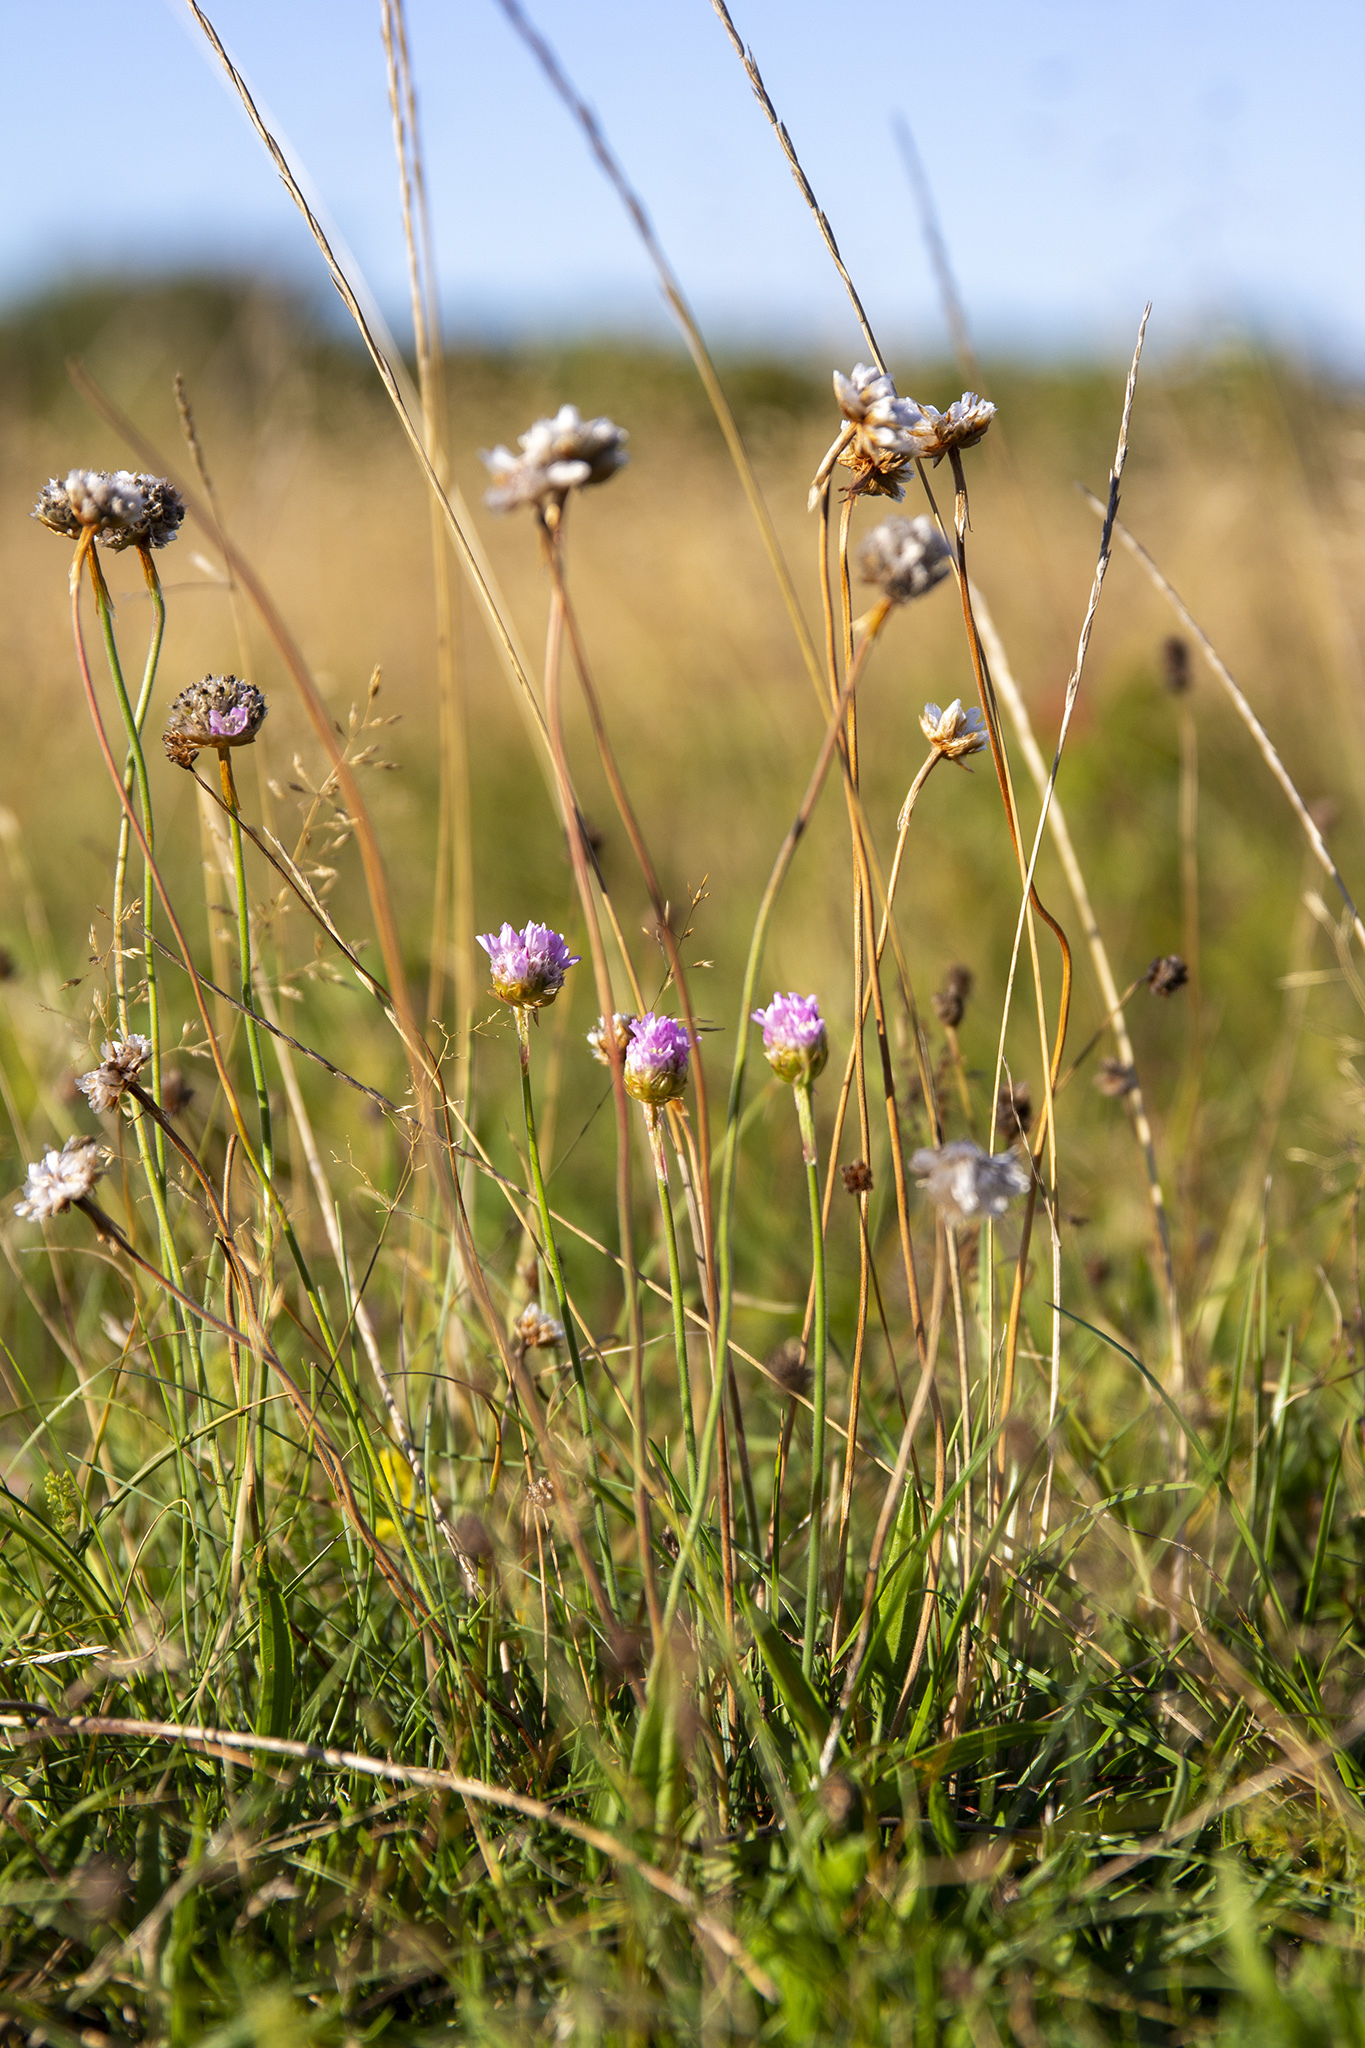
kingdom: Plantae
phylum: Tracheophyta
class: Magnoliopsida
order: Caryophyllales
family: Plumbaginaceae
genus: Armeria
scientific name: Armeria maritima
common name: Thrift
